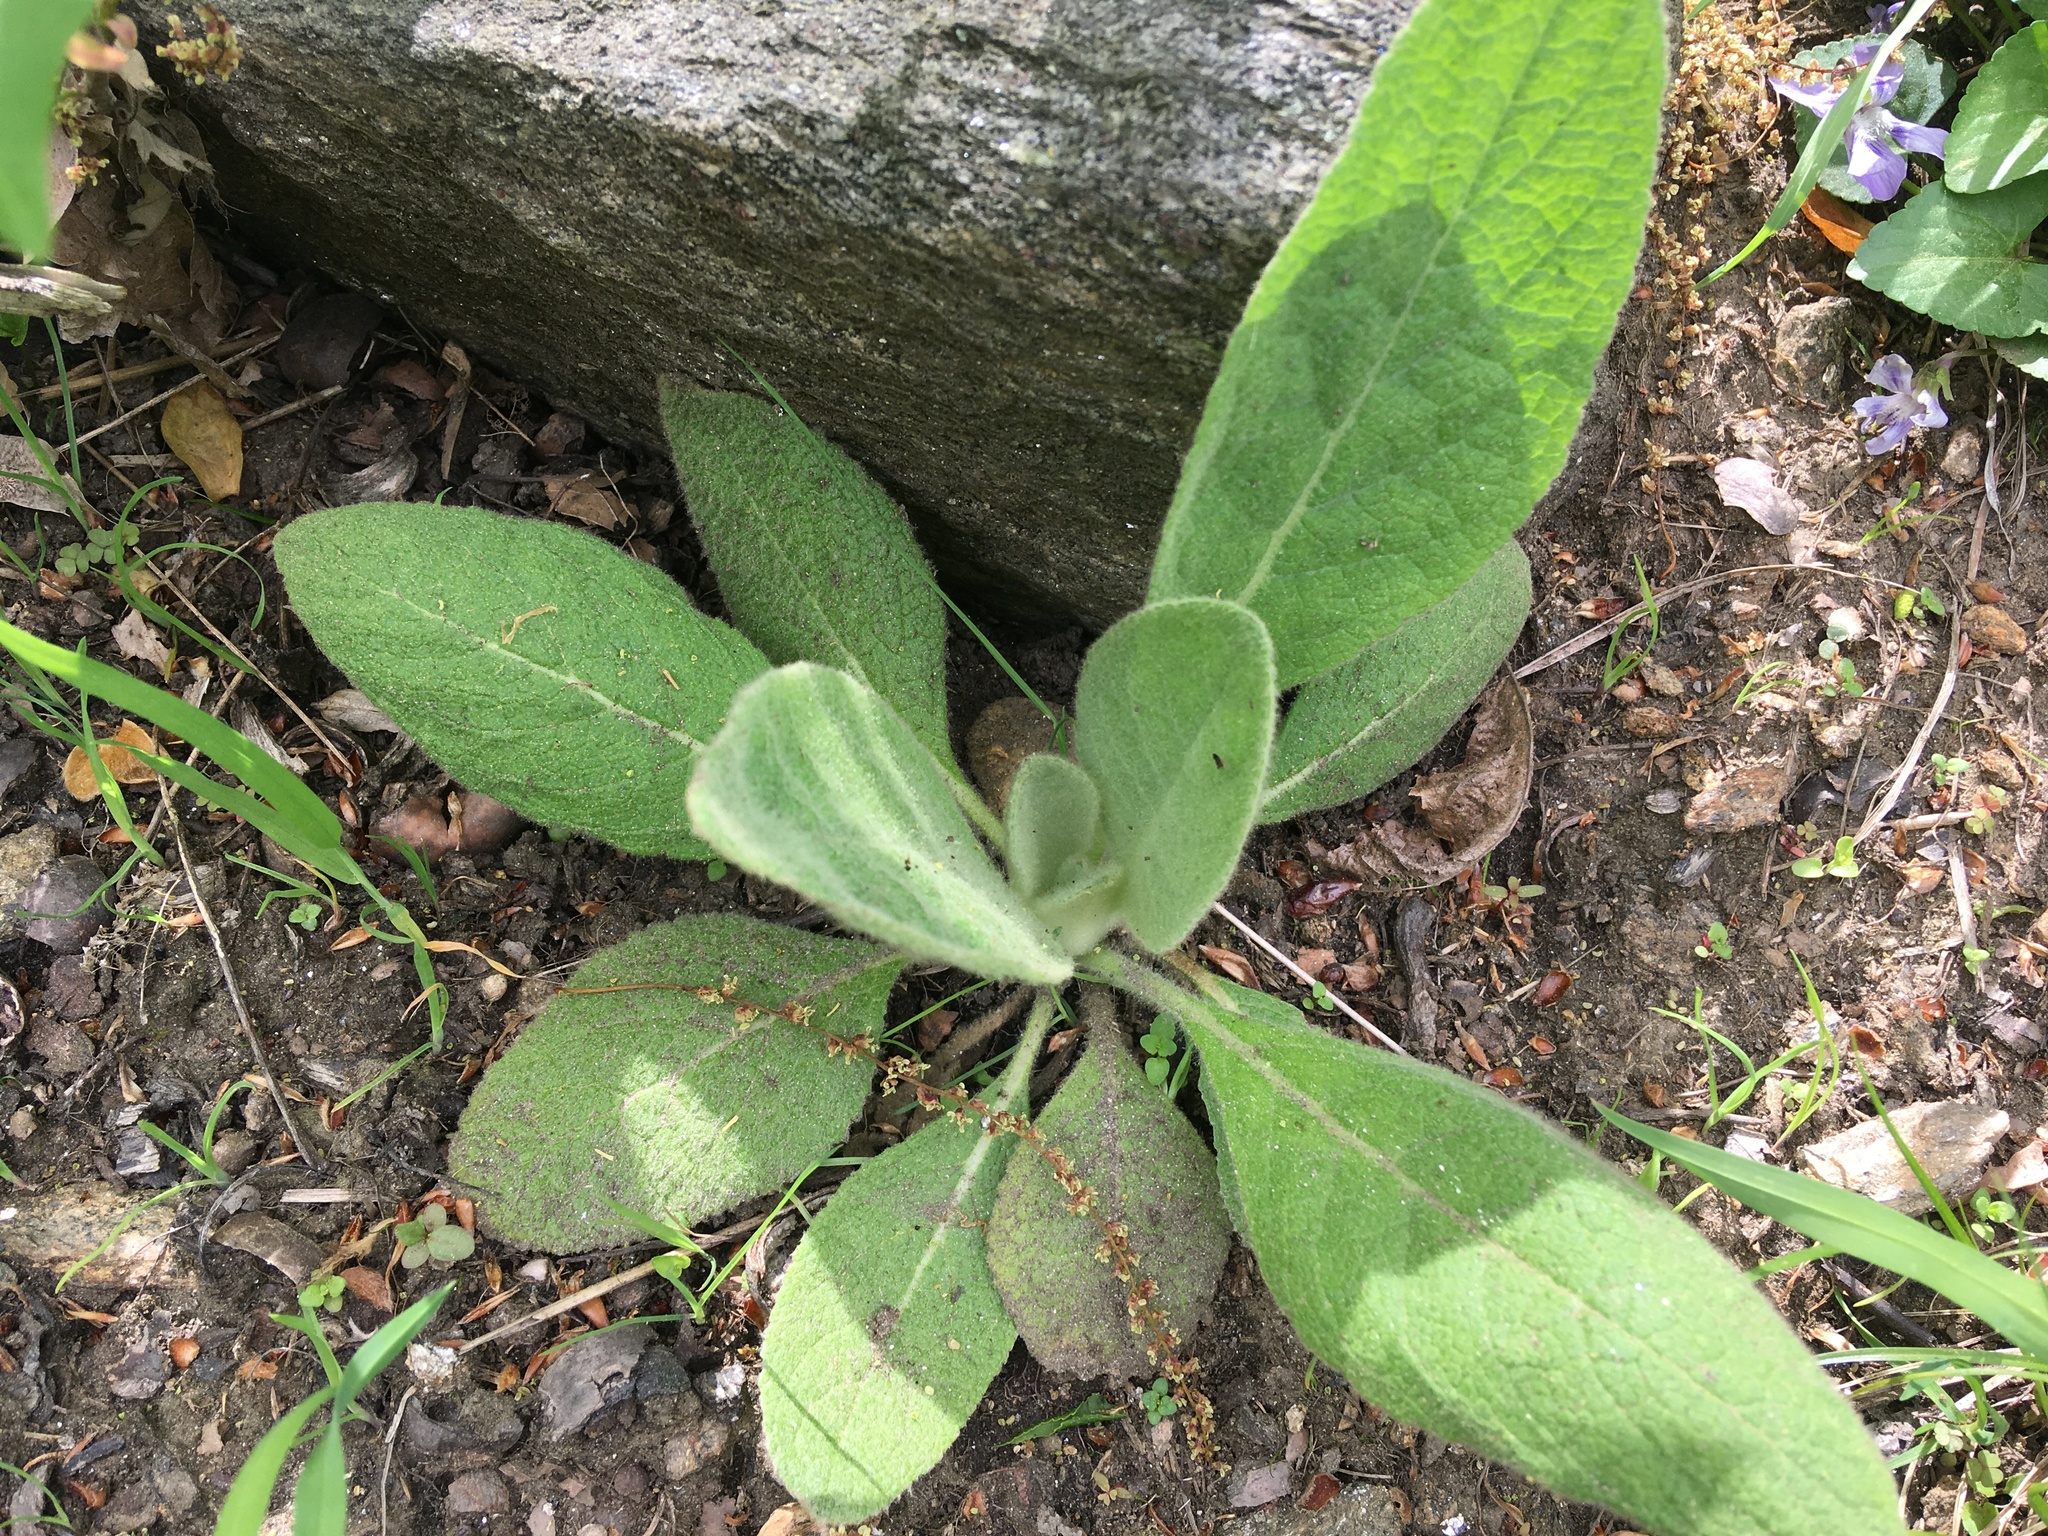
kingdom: Plantae
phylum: Tracheophyta
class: Magnoliopsida
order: Lamiales
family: Scrophulariaceae
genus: Verbascum
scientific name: Verbascum thapsus
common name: Common mullein
